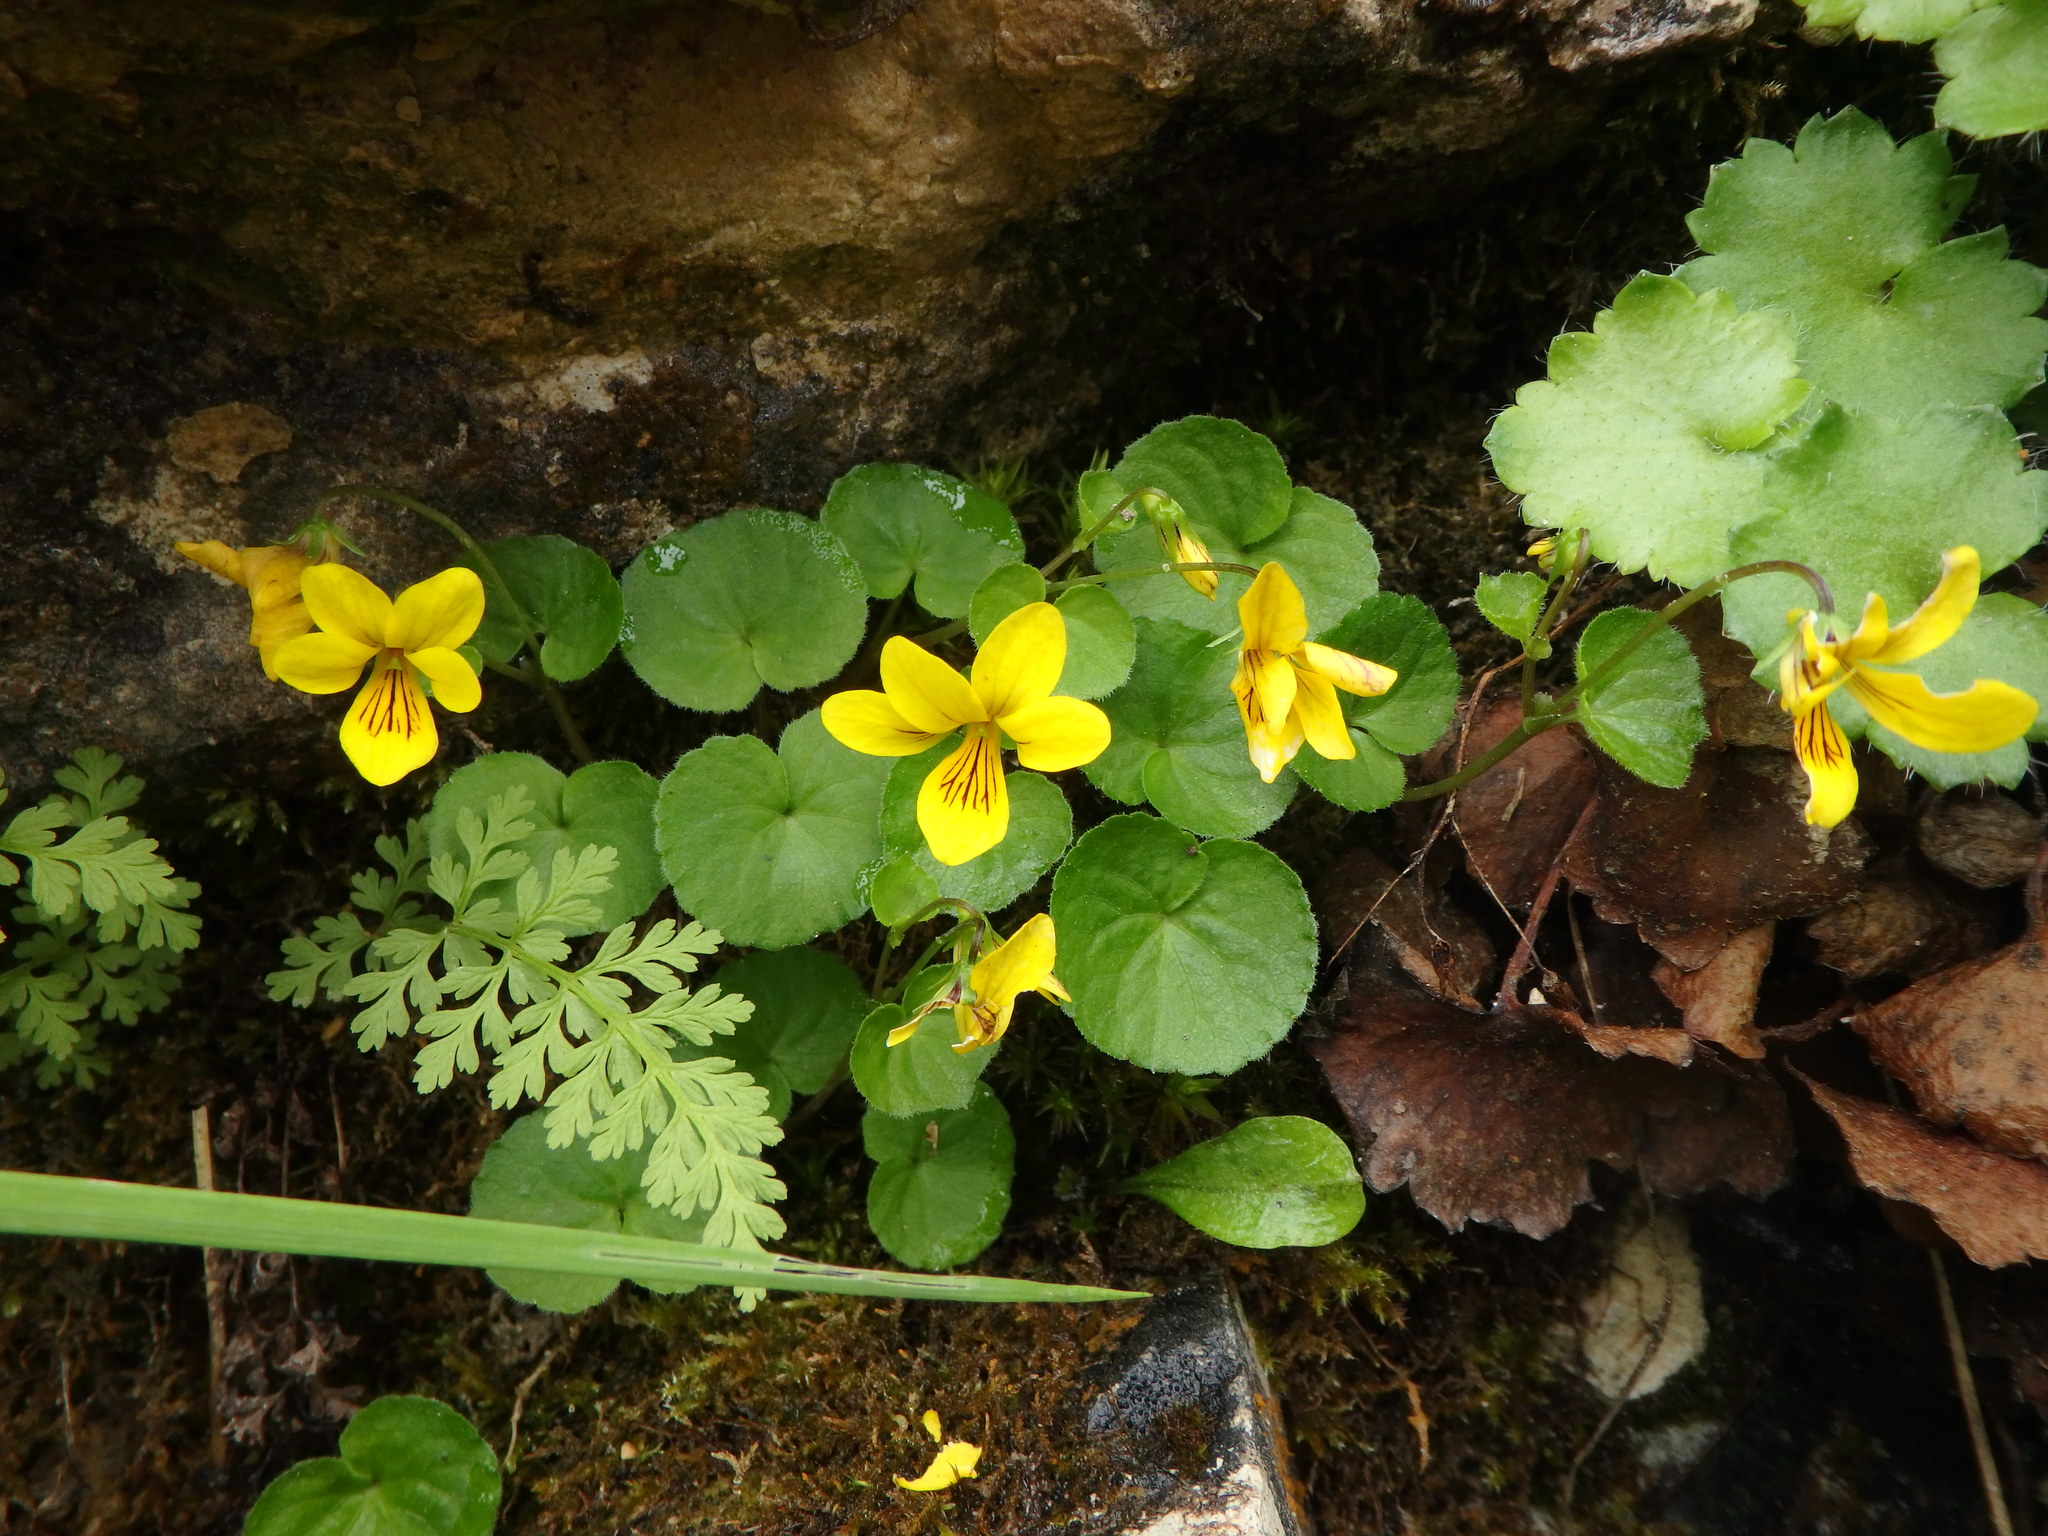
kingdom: Plantae
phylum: Tracheophyta
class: Magnoliopsida
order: Malpighiales
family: Violaceae
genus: Viola
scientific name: Viola biflora
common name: Alpine yellow violet
